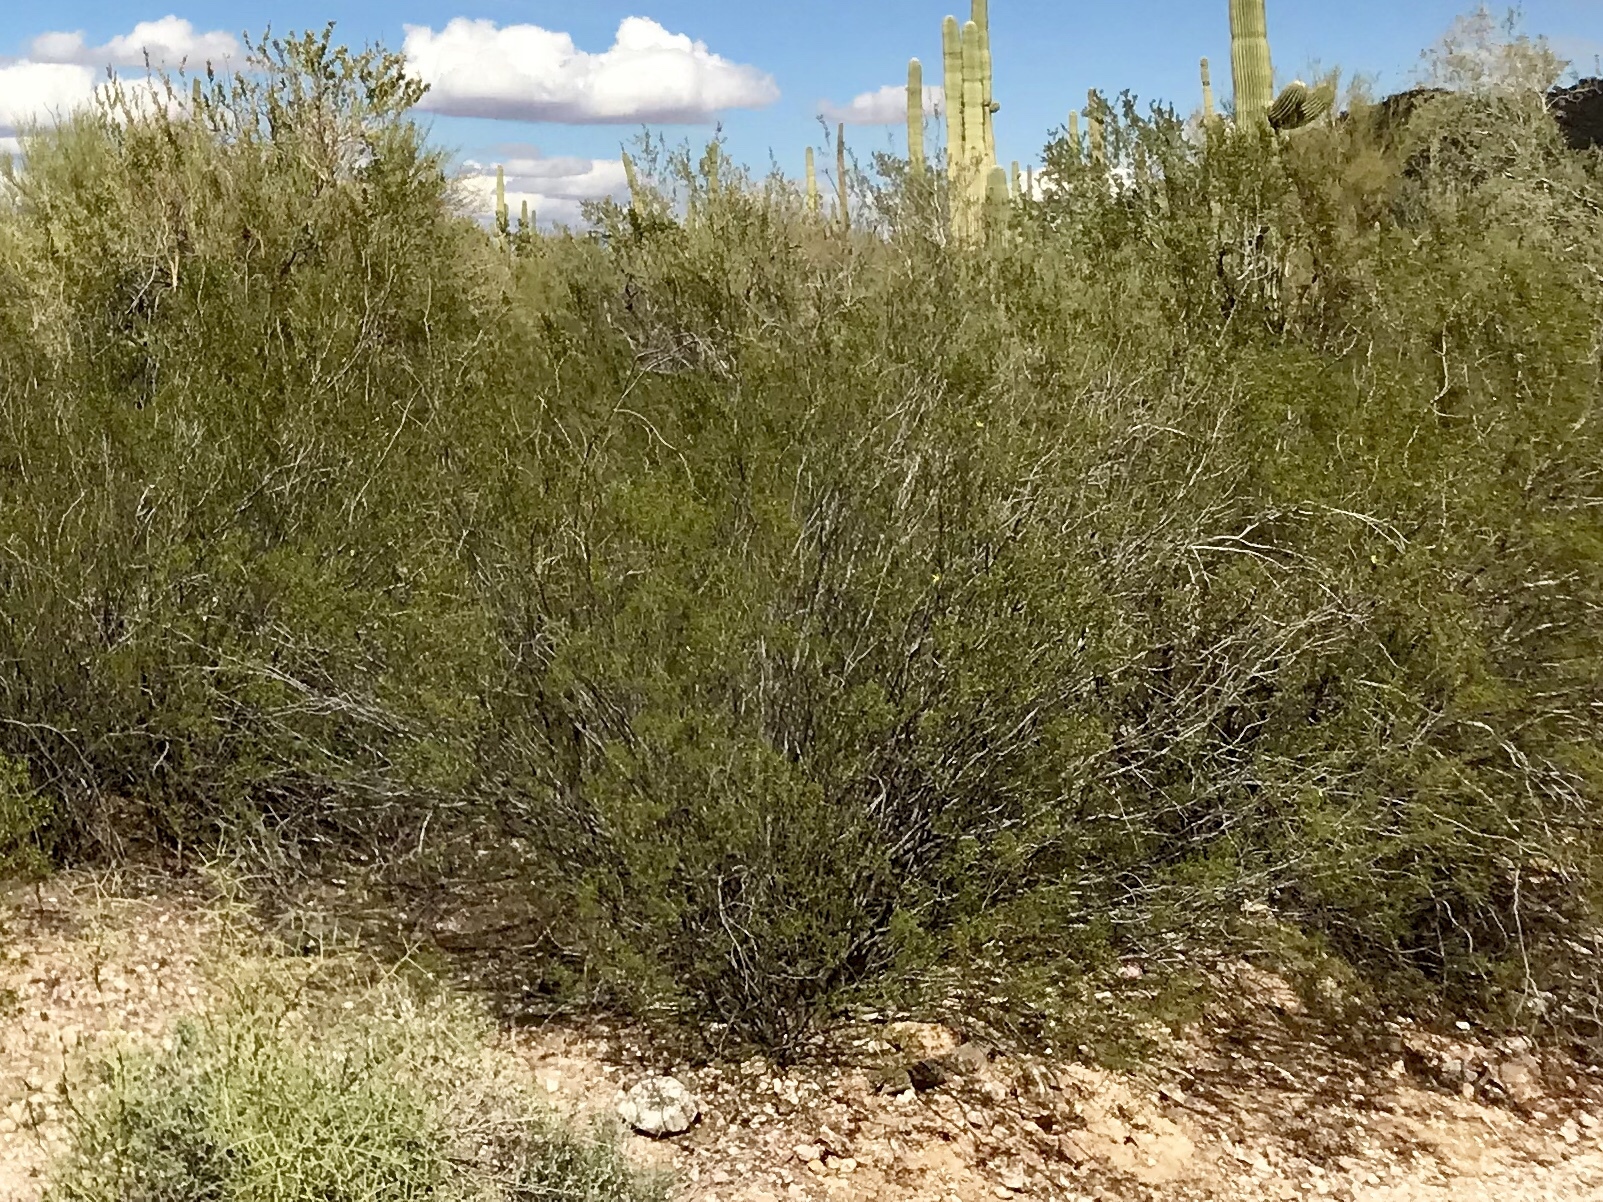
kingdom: Plantae
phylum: Tracheophyta
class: Magnoliopsida
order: Zygophyllales
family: Zygophyllaceae
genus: Larrea
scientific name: Larrea tridentata
